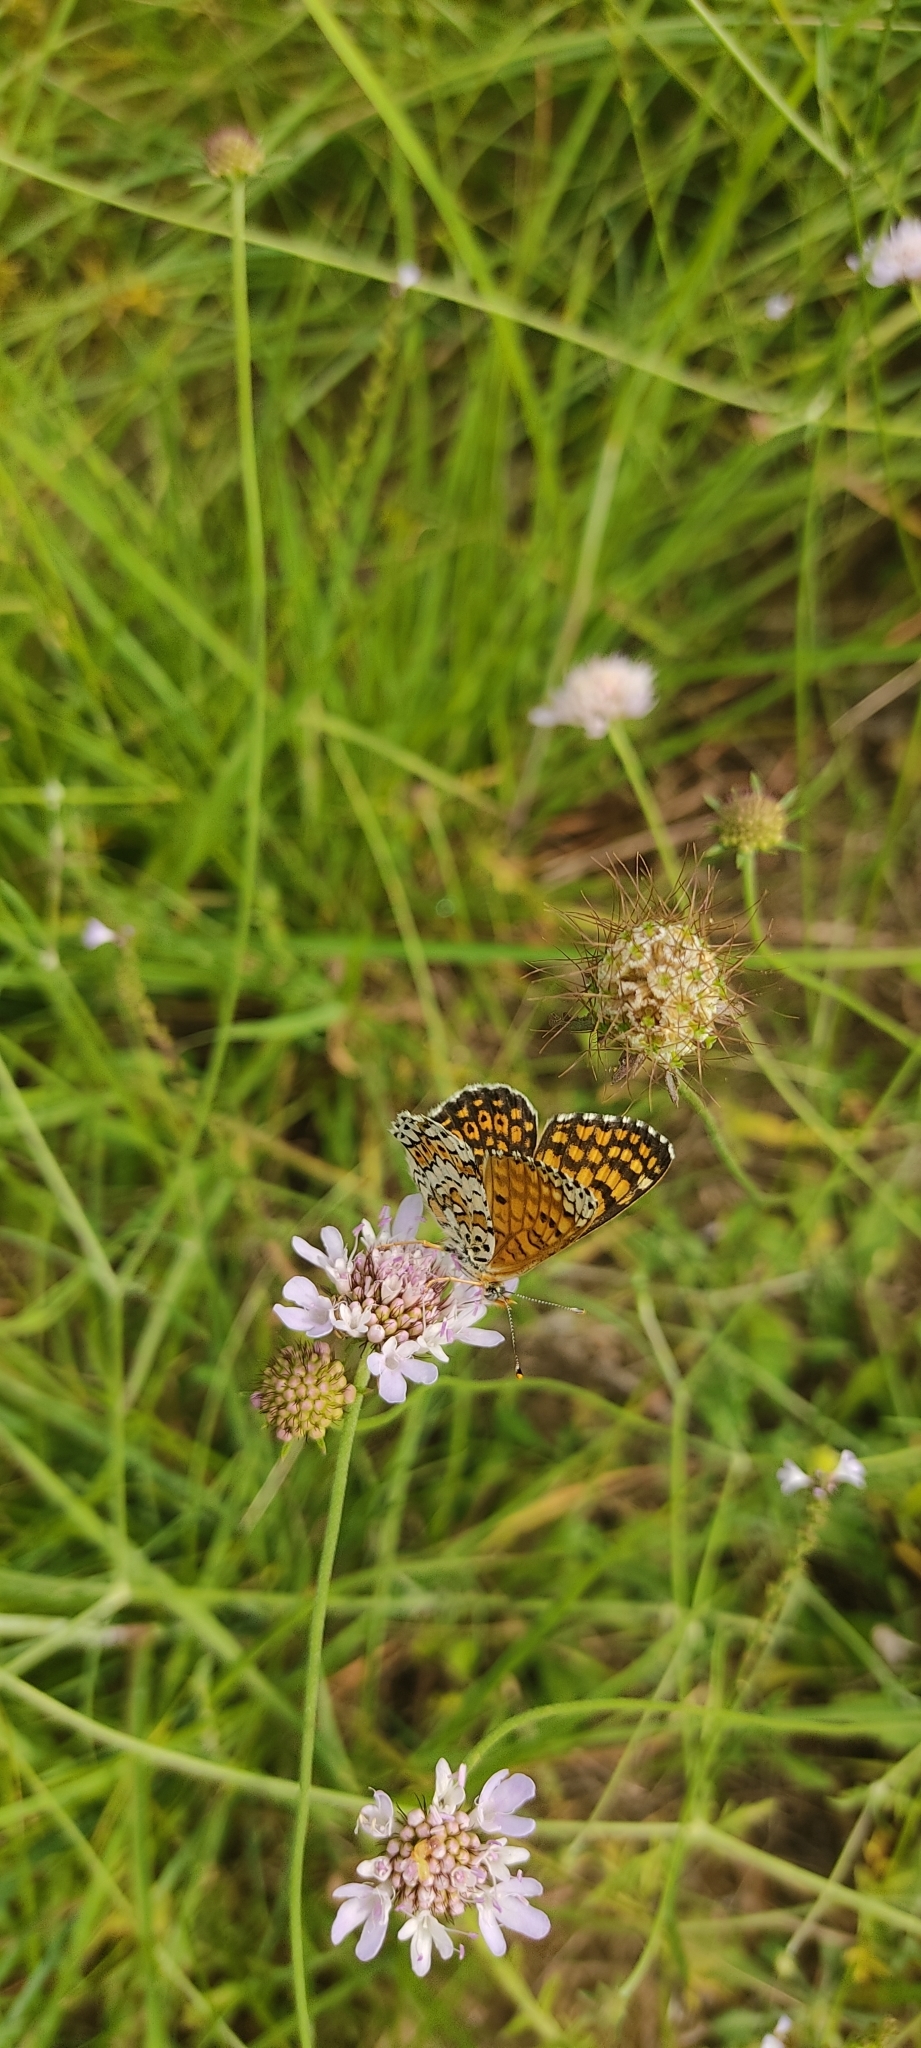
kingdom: Animalia
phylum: Arthropoda
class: Insecta
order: Lepidoptera
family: Nymphalidae
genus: Melitaea
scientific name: Melitaea cinxia
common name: Glanville fritillary
